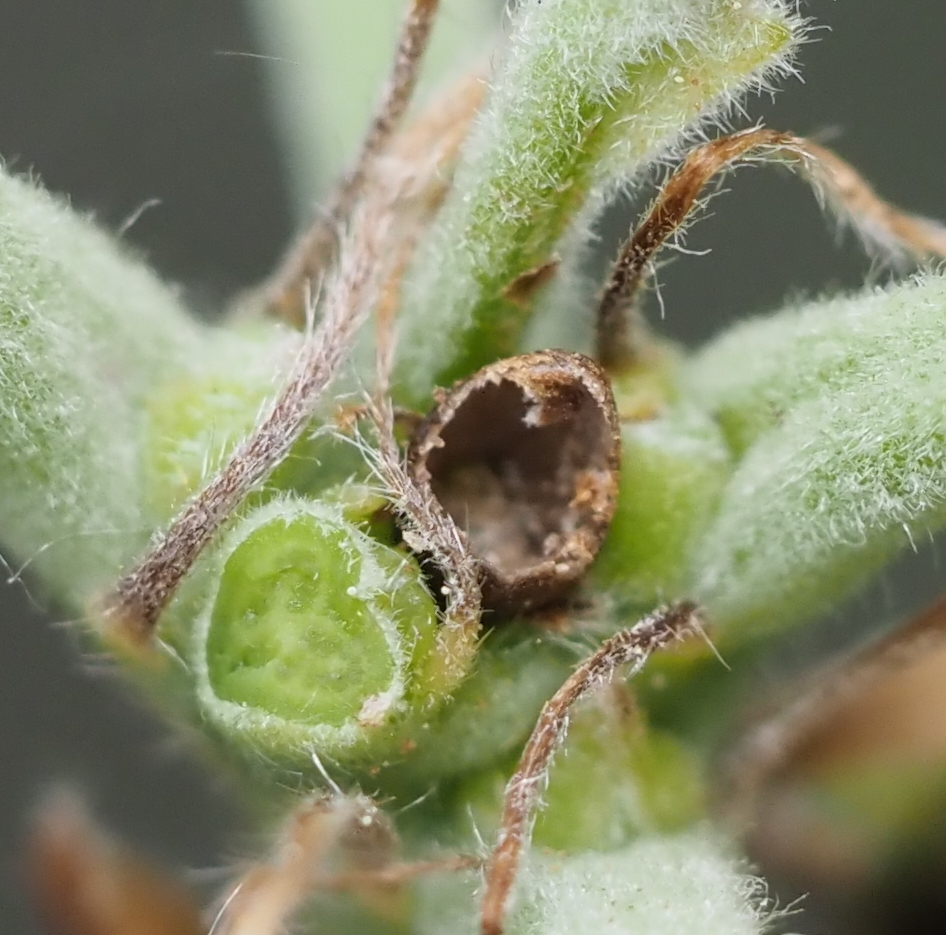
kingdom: Animalia
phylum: Arthropoda
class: Insecta
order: Hymenoptera
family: Cynipidae
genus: Philonix
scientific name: Philonix fulvicollis
